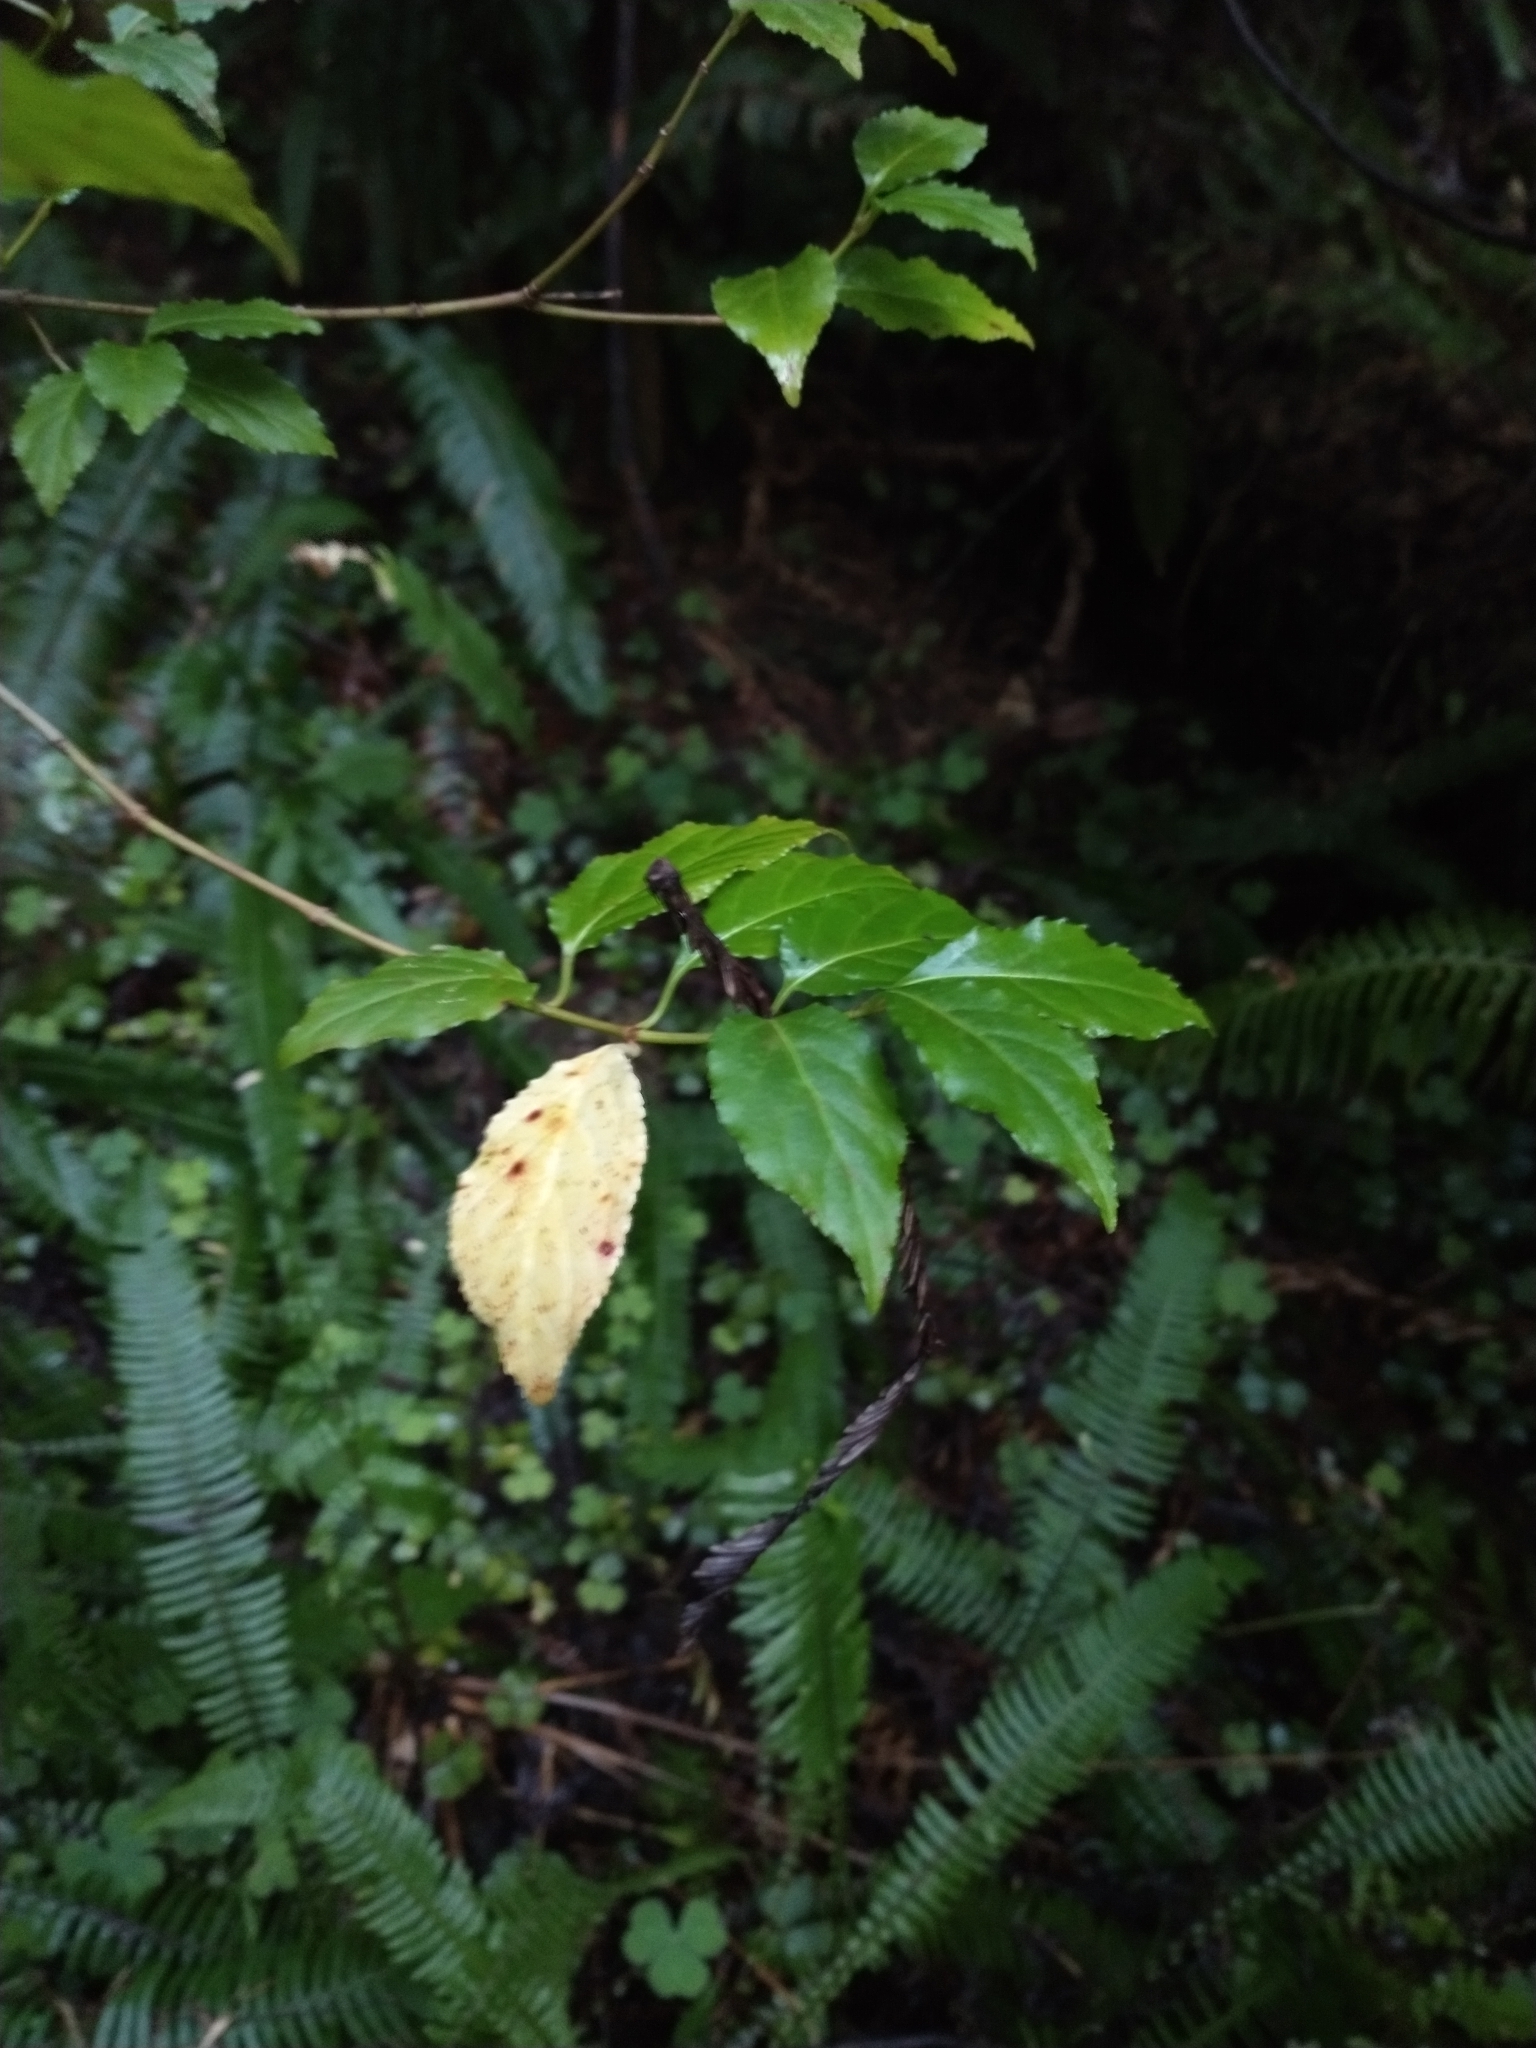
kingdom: Plantae
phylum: Tracheophyta
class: Magnoliopsida
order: Celastrales
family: Celastraceae
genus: Euonymus
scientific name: Euonymus occidentalis
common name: Western burningbush
